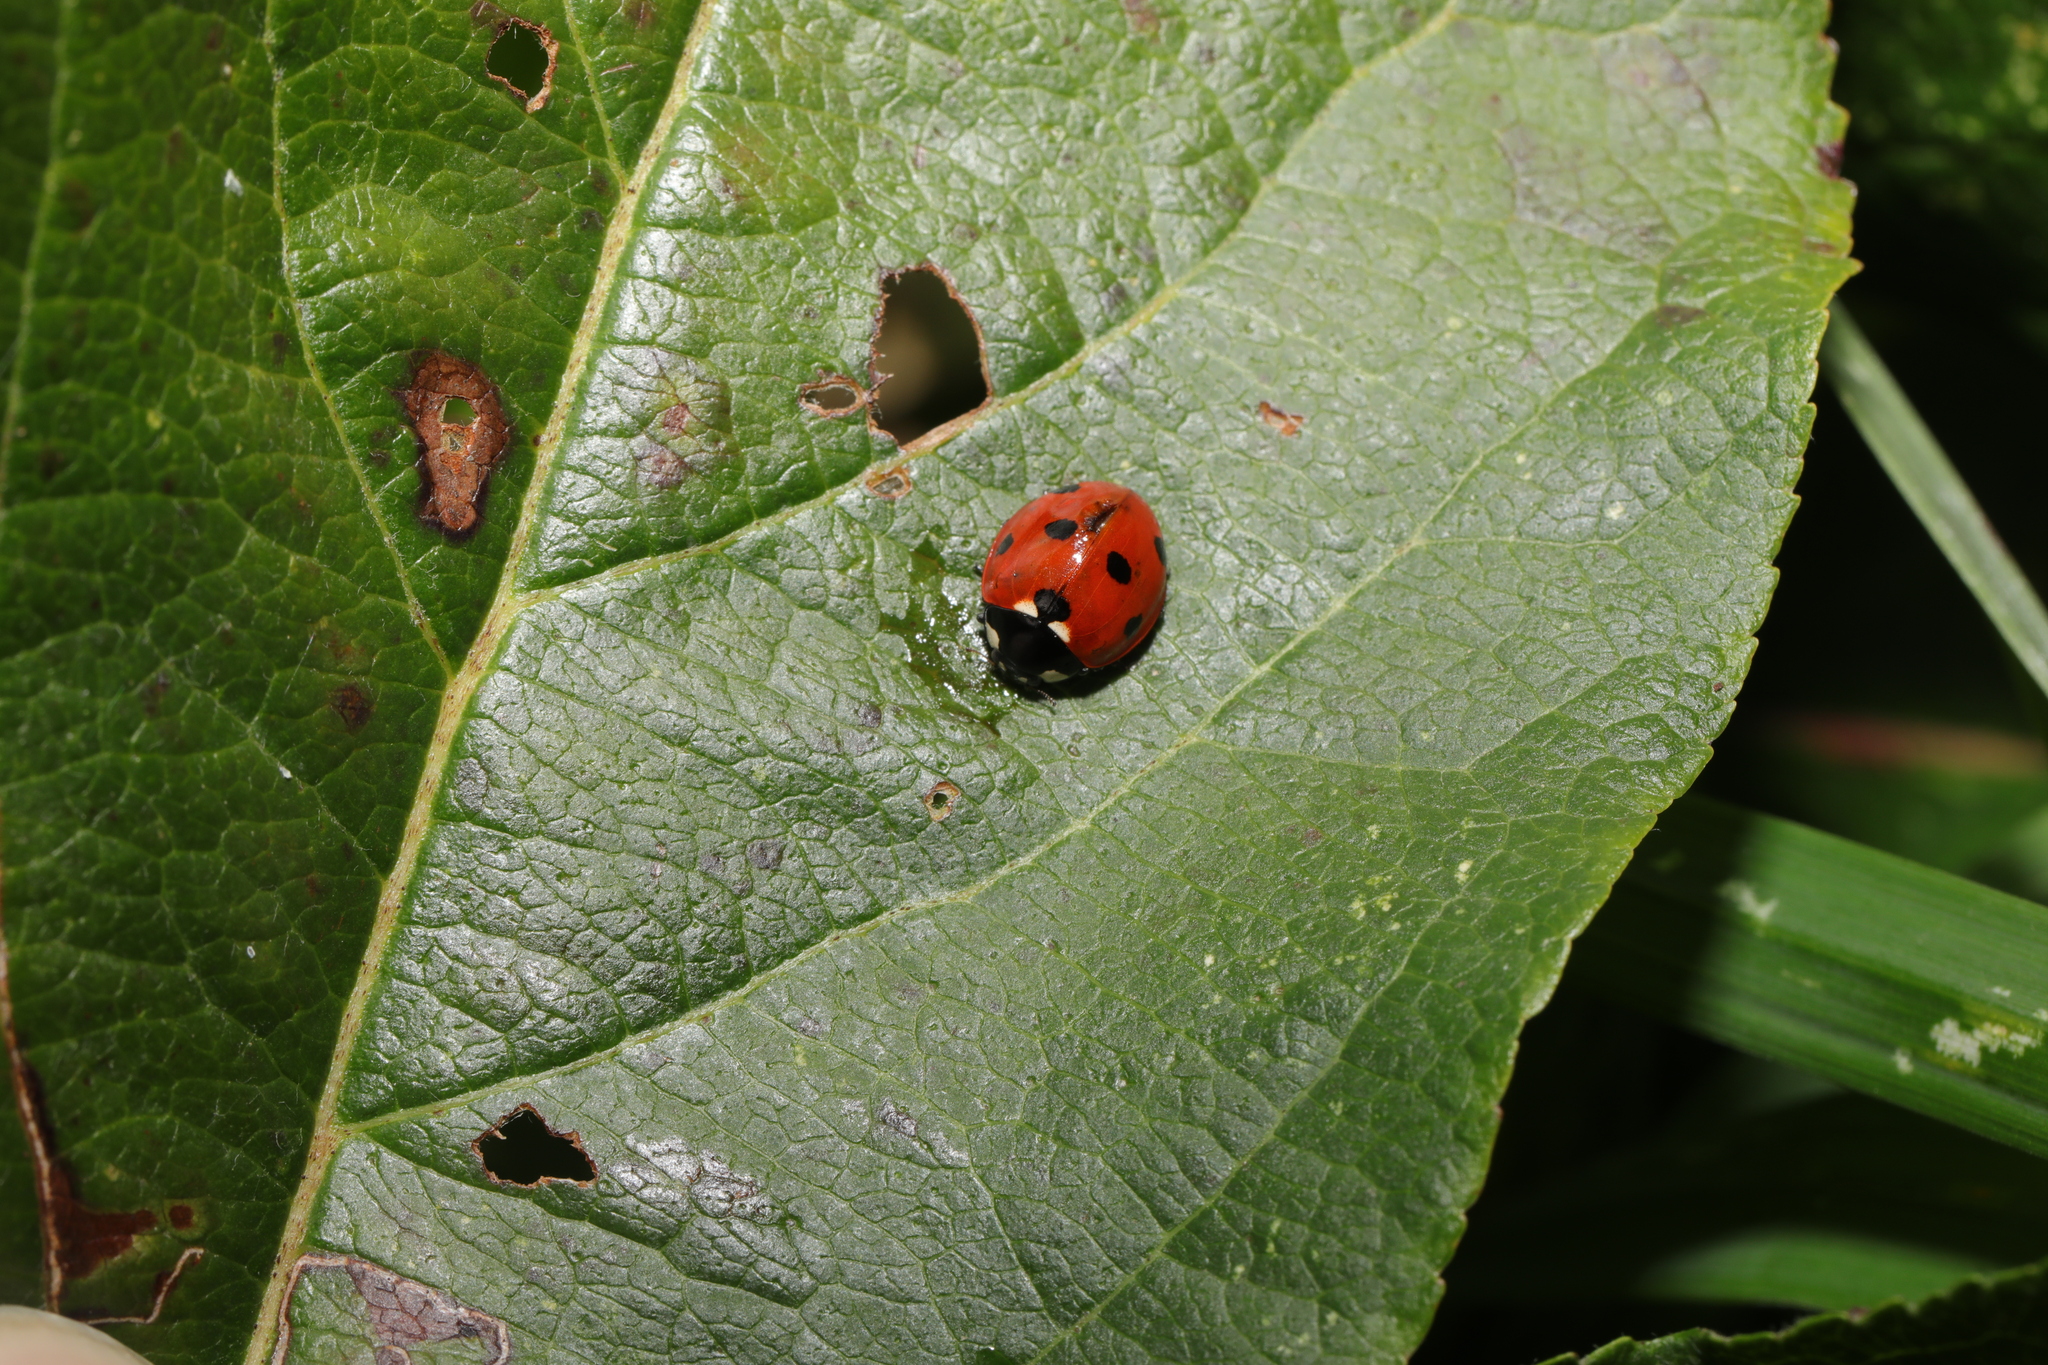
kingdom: Animalia
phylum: Arthropoda
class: Insecta
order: Coleoptera
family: Coccinellidae
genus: Coccinella
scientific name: Coccinella septempunctata
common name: Sevenspotted lady beetle
